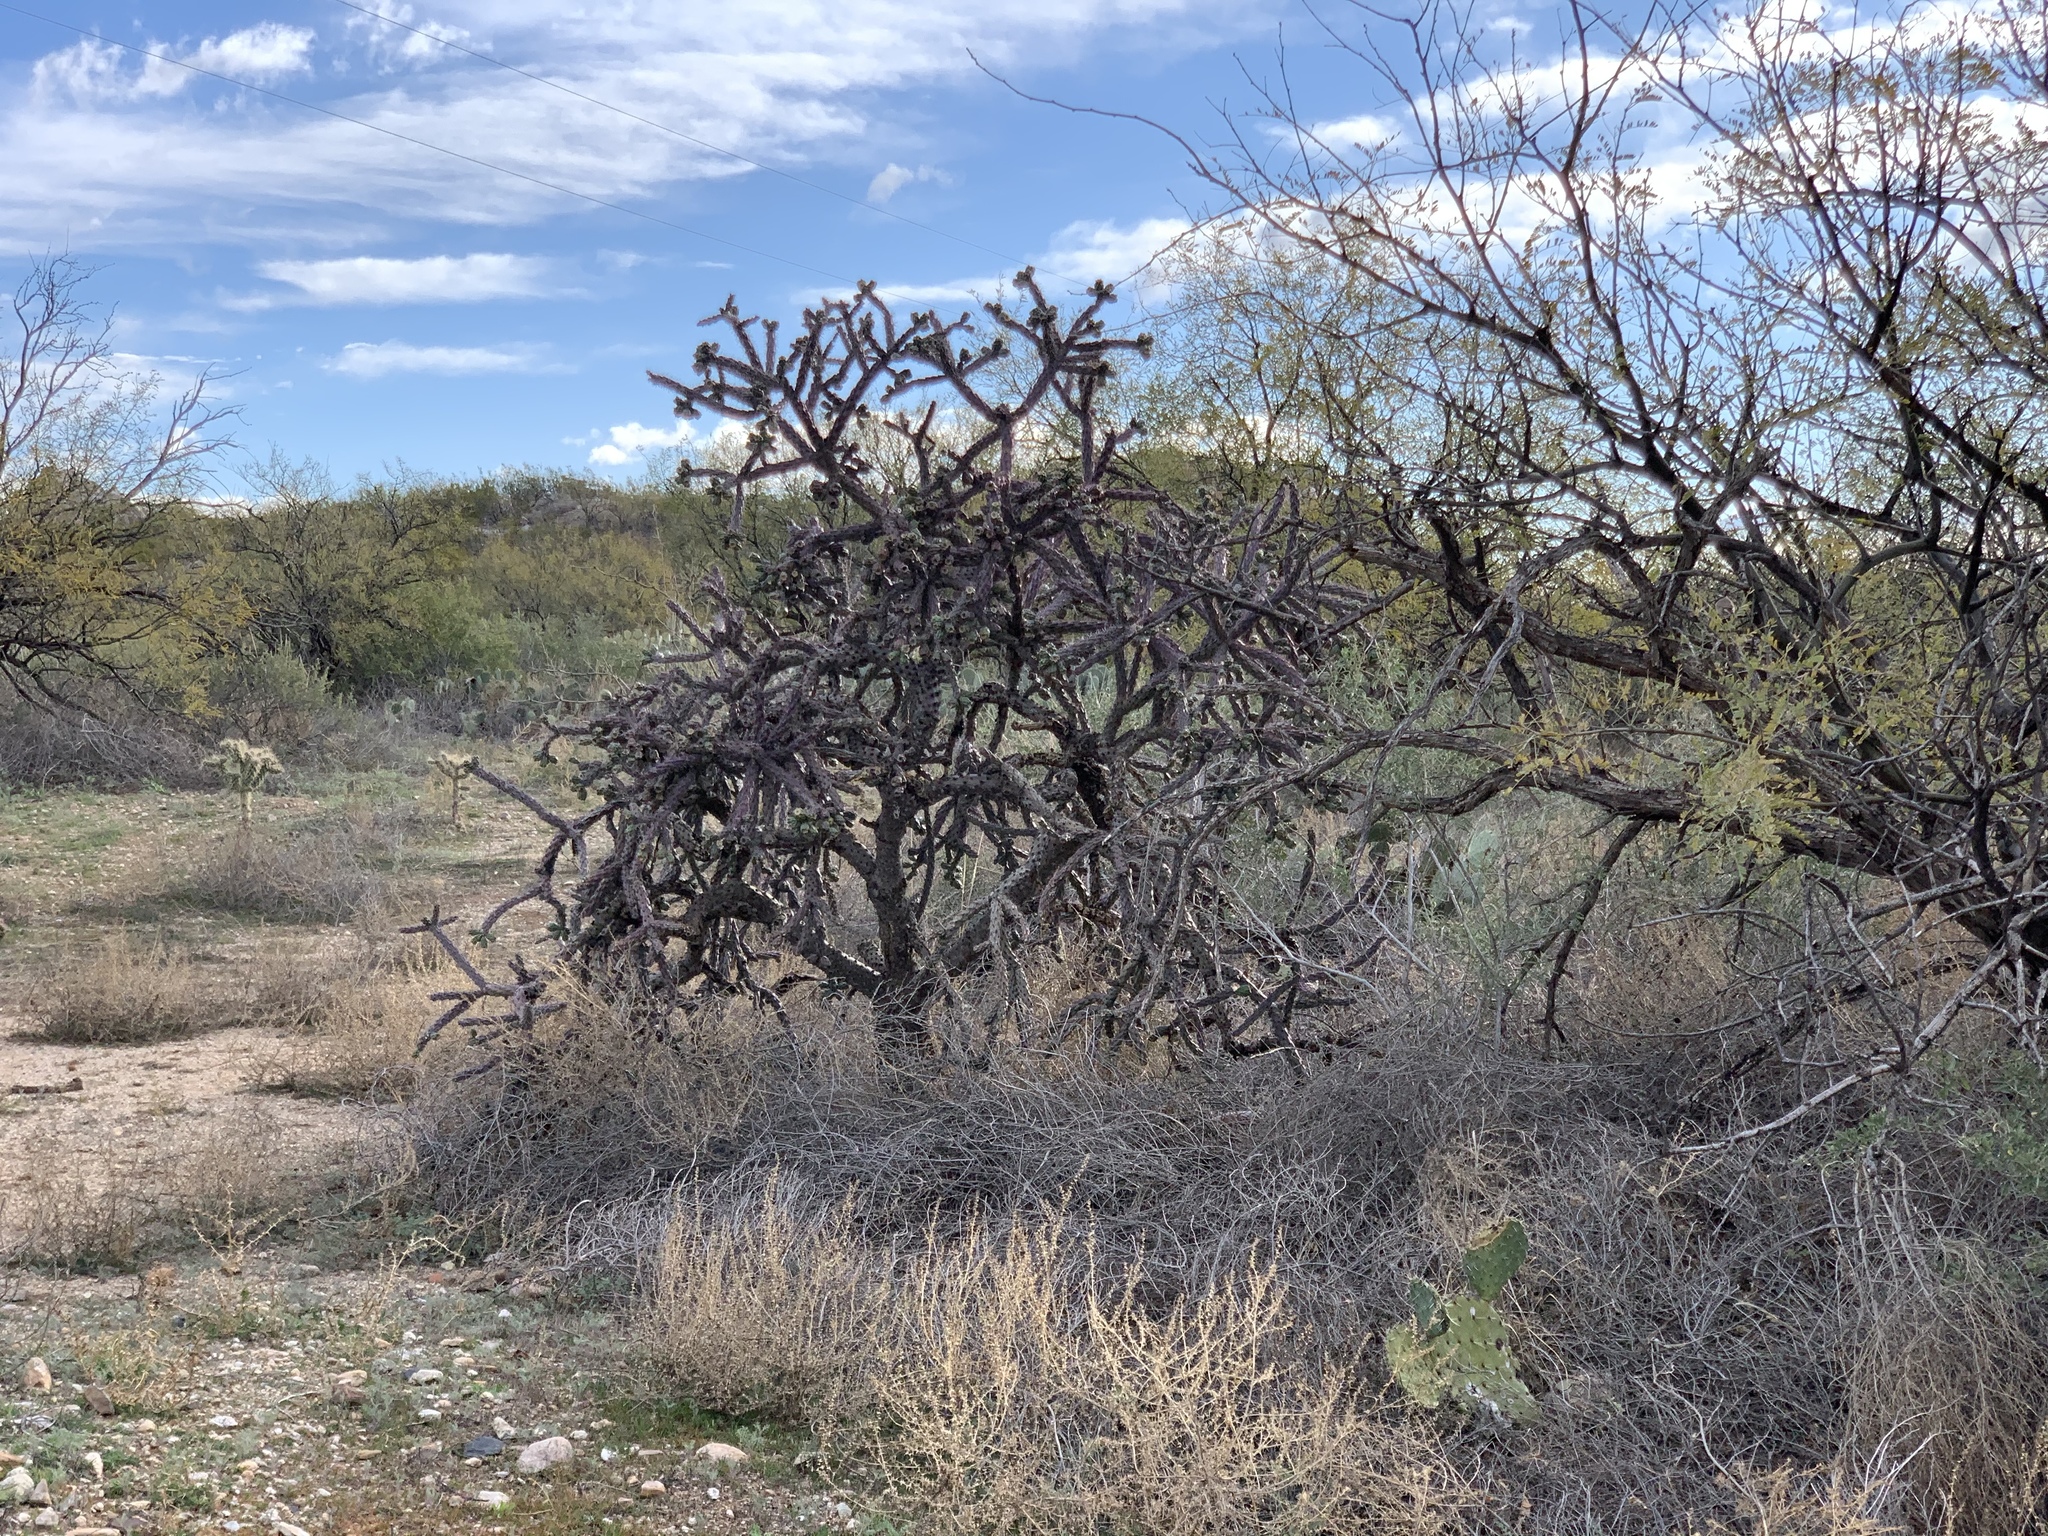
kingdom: Plantae
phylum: Tracheophyta
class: Magnoliopsida
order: Caryophyllales
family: Cactaceae
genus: Cylindropuntia
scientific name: Cylindropuntia thurberi
